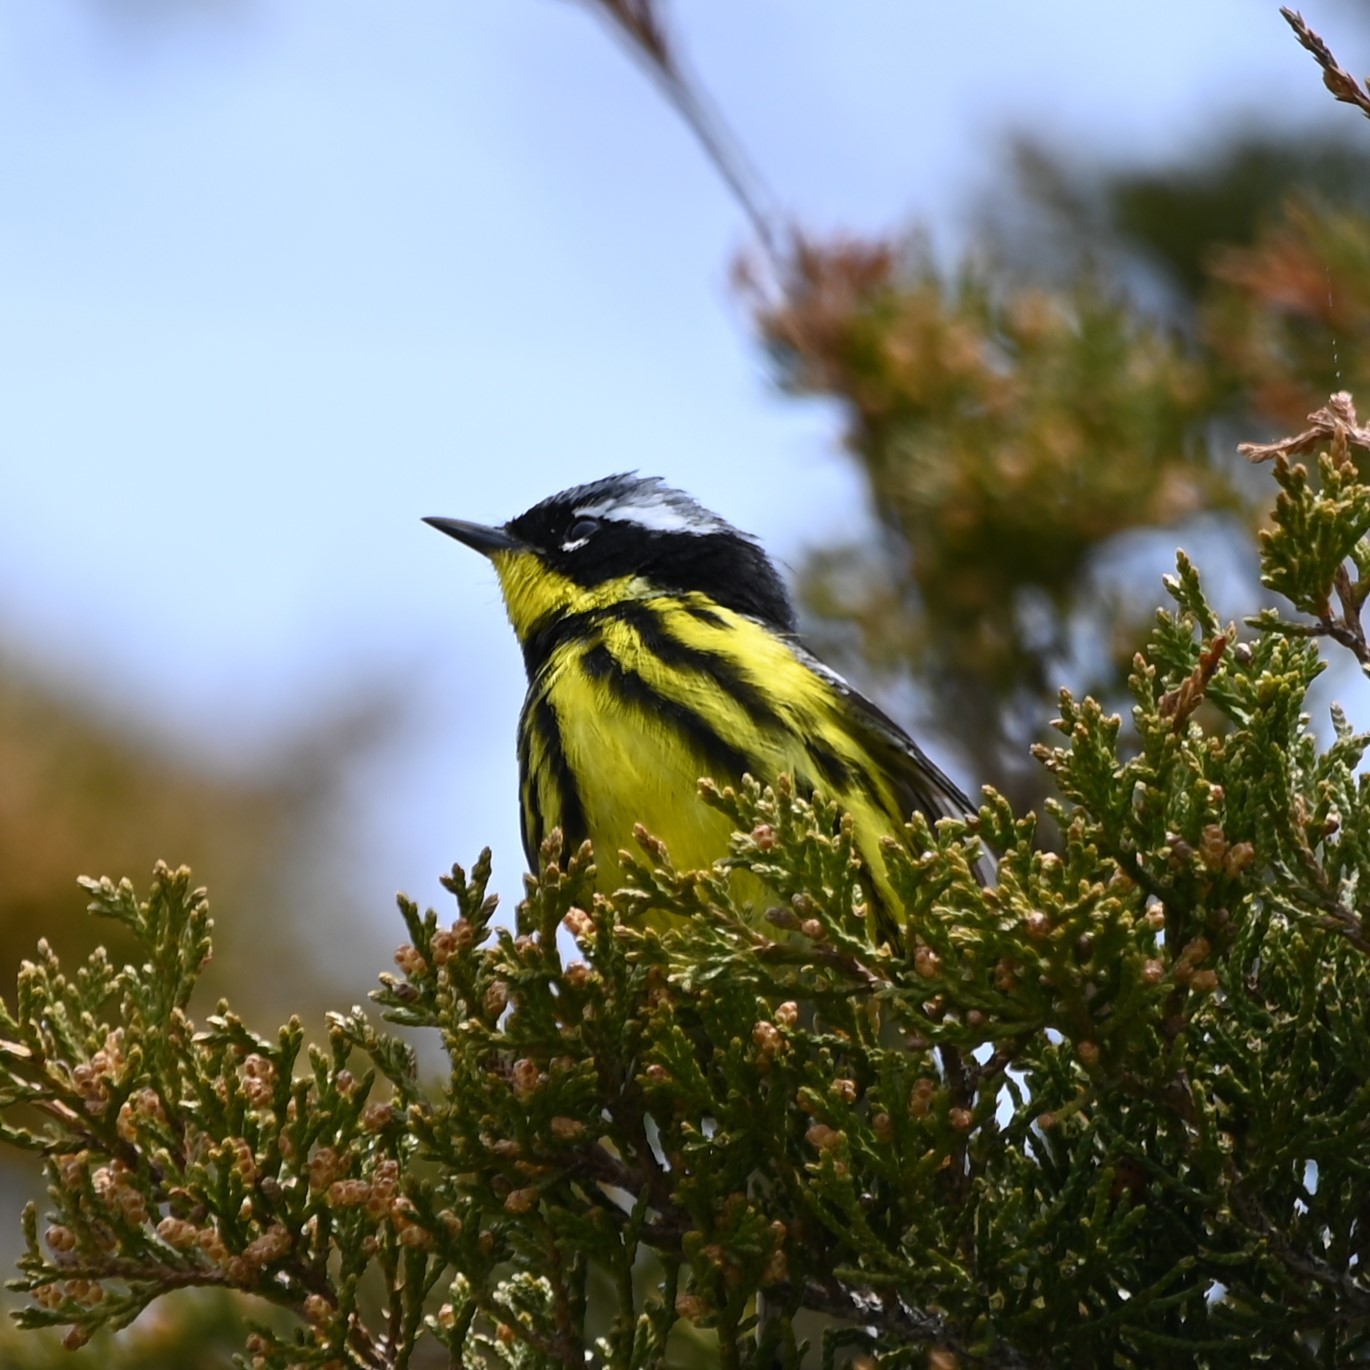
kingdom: Animalia
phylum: Chordata
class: Aves
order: Passeriformes
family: Parulidae
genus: Setophaga
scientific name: Setophaga magnolia
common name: Magnolia warbler
